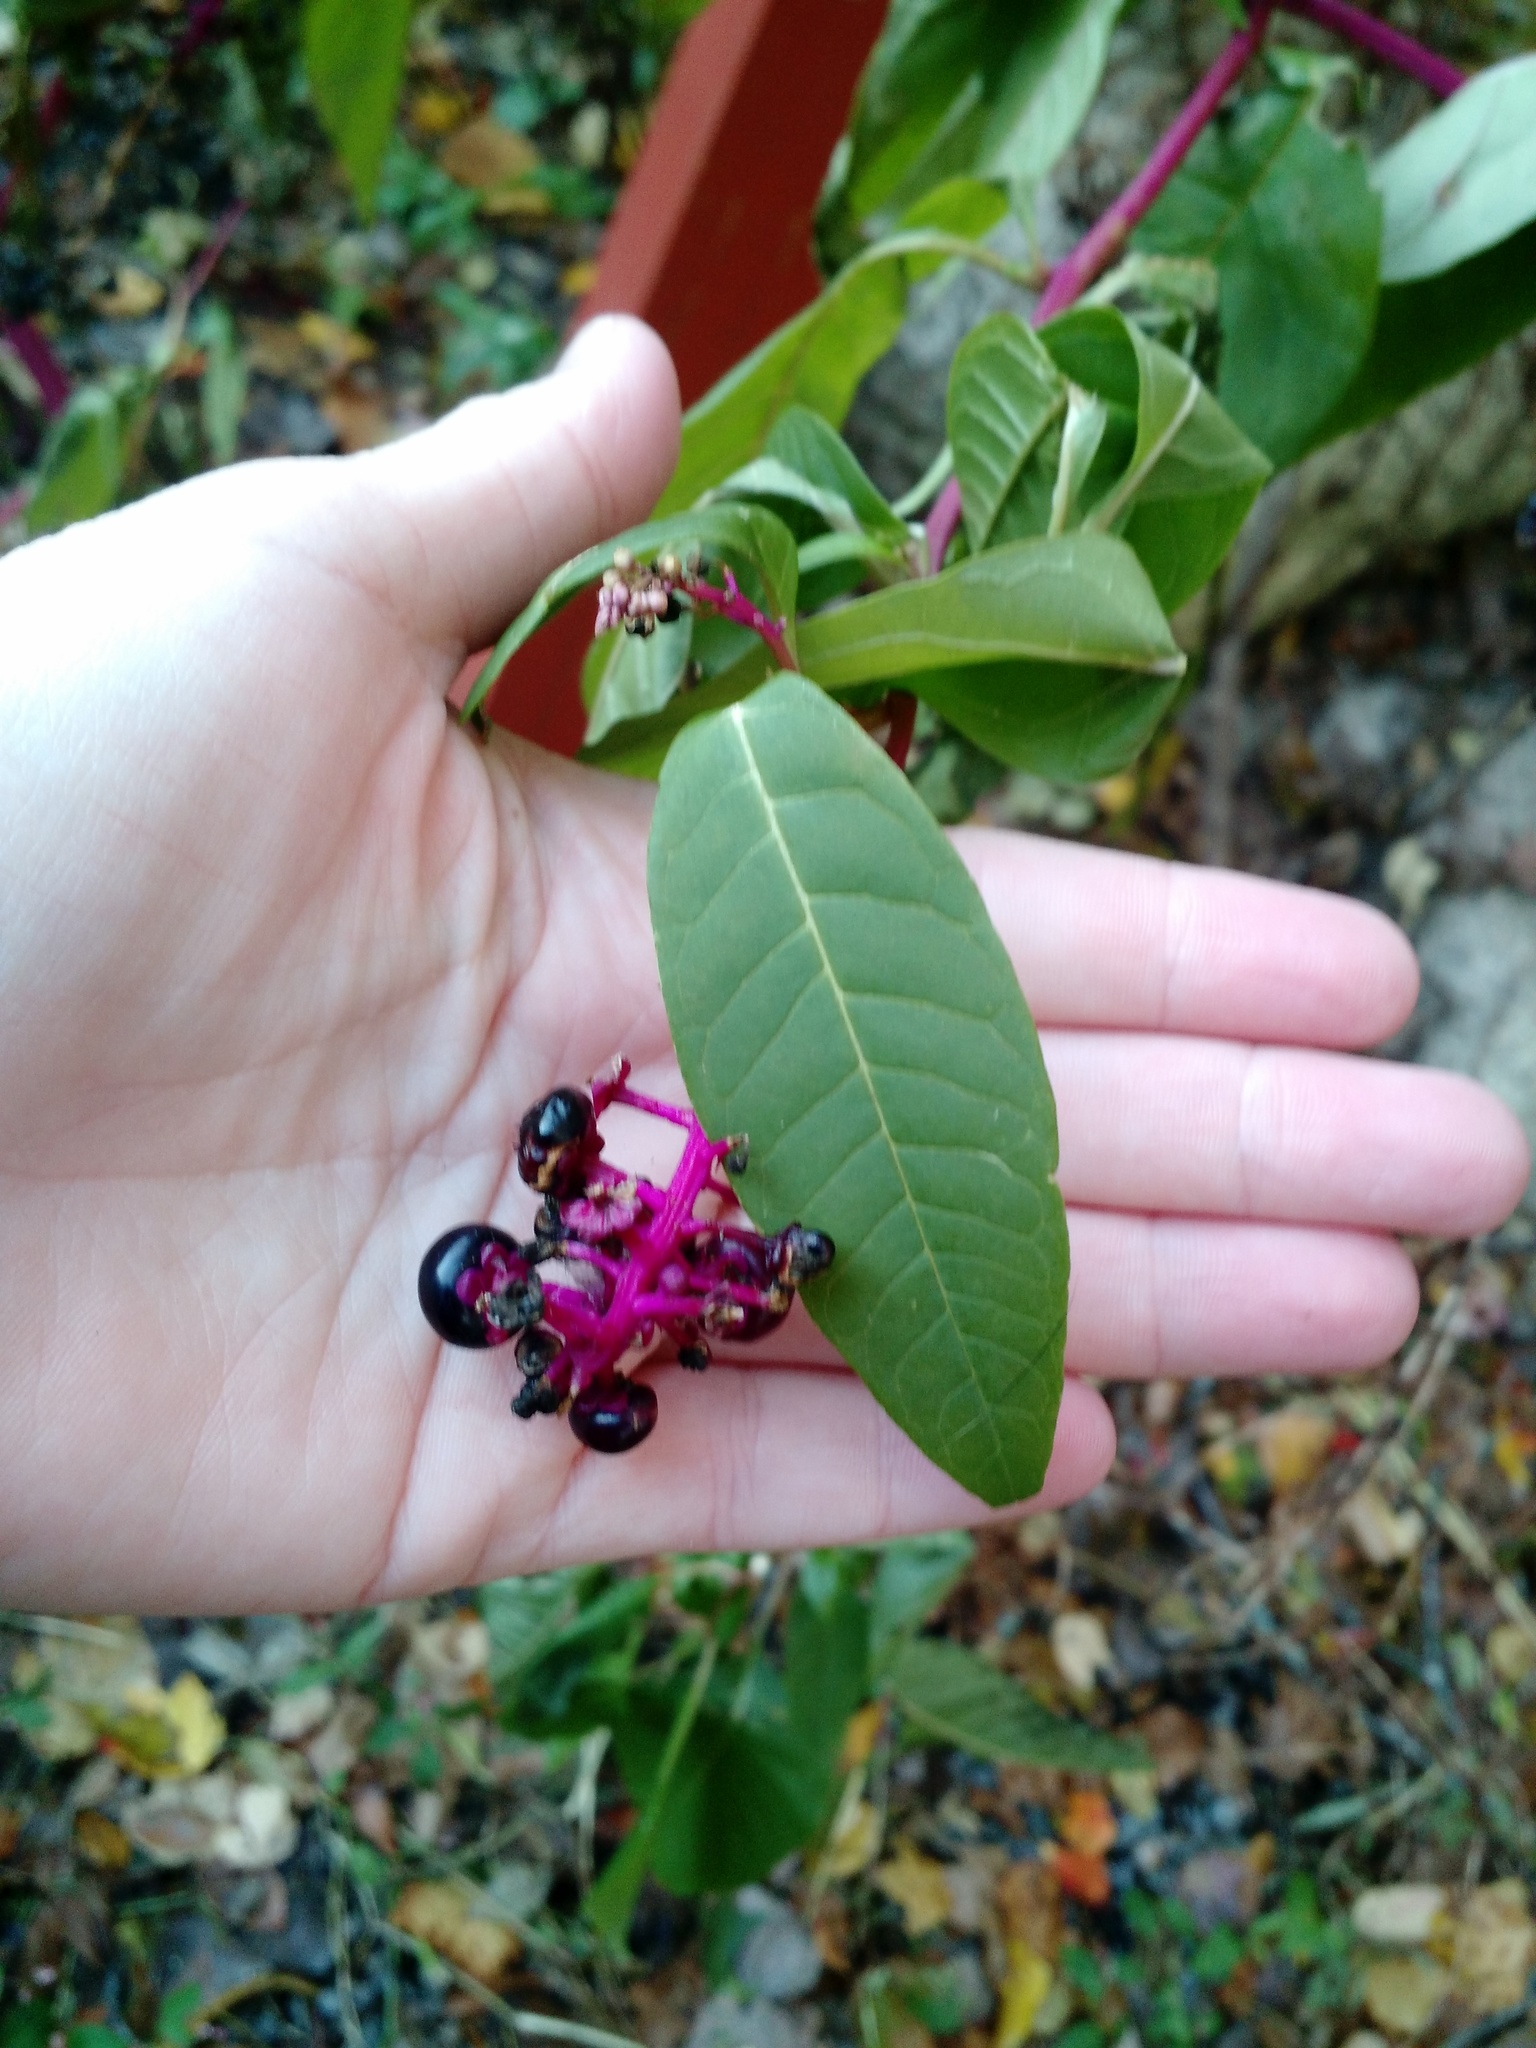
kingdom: Plantae
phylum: Tracheophyta
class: Magnoliopsida
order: Caryophyllales
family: Phytolaccaceae
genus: Phytolacca
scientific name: Phytolacca americana
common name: American pokeweed
